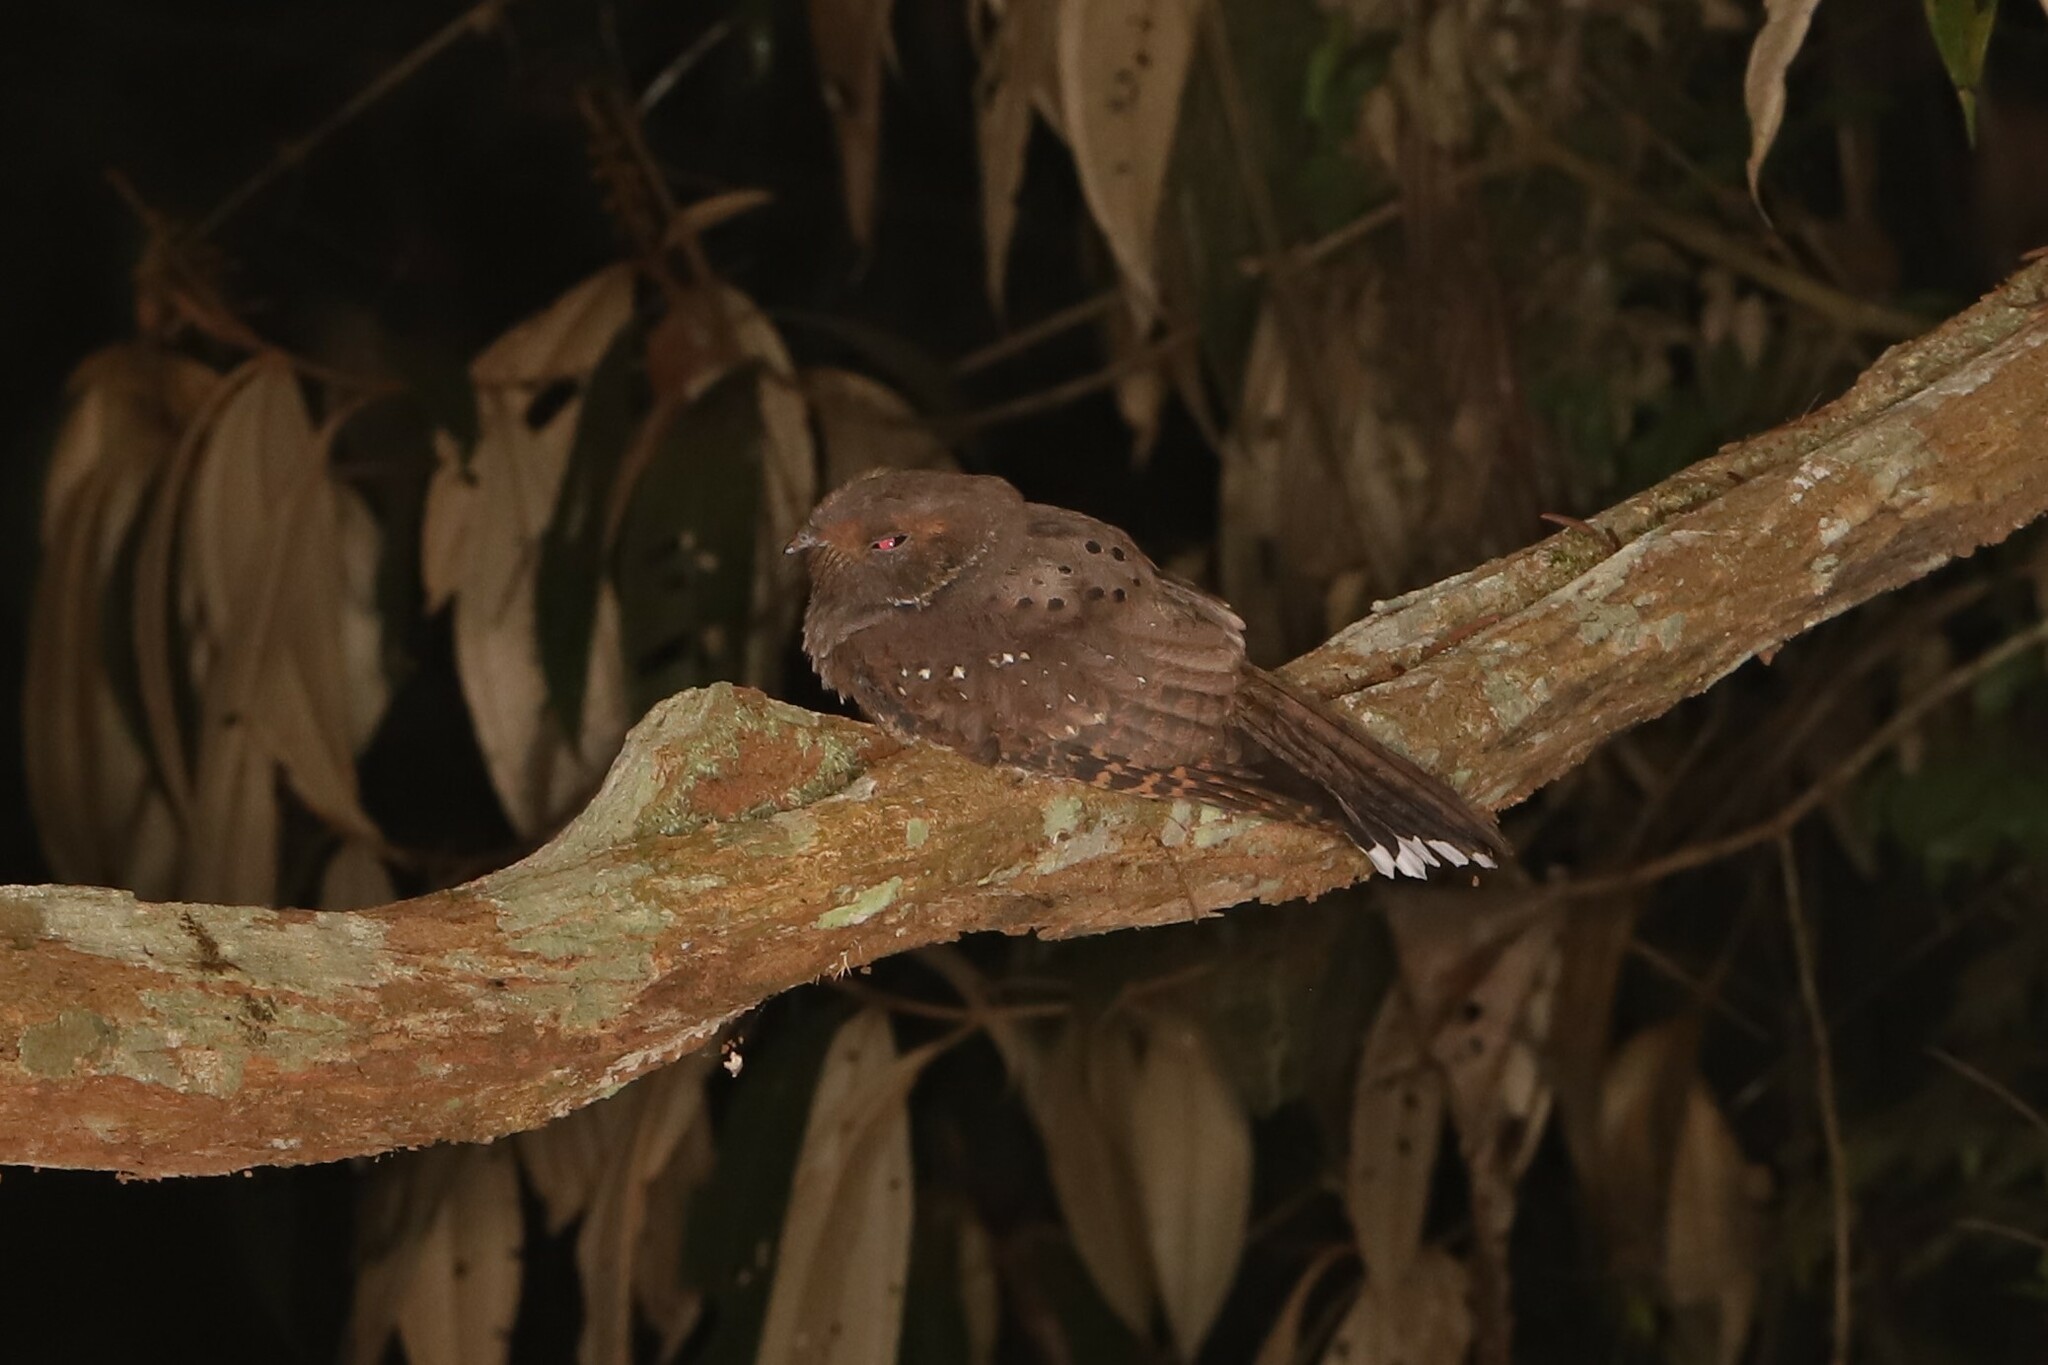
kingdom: Animalia
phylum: Chordata
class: Aves
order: Caprimulgiformes
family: Caprimulgidae
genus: Nyctiphrynus
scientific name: Nyctiphrynus ocellatus
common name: Ocellated poorwill
